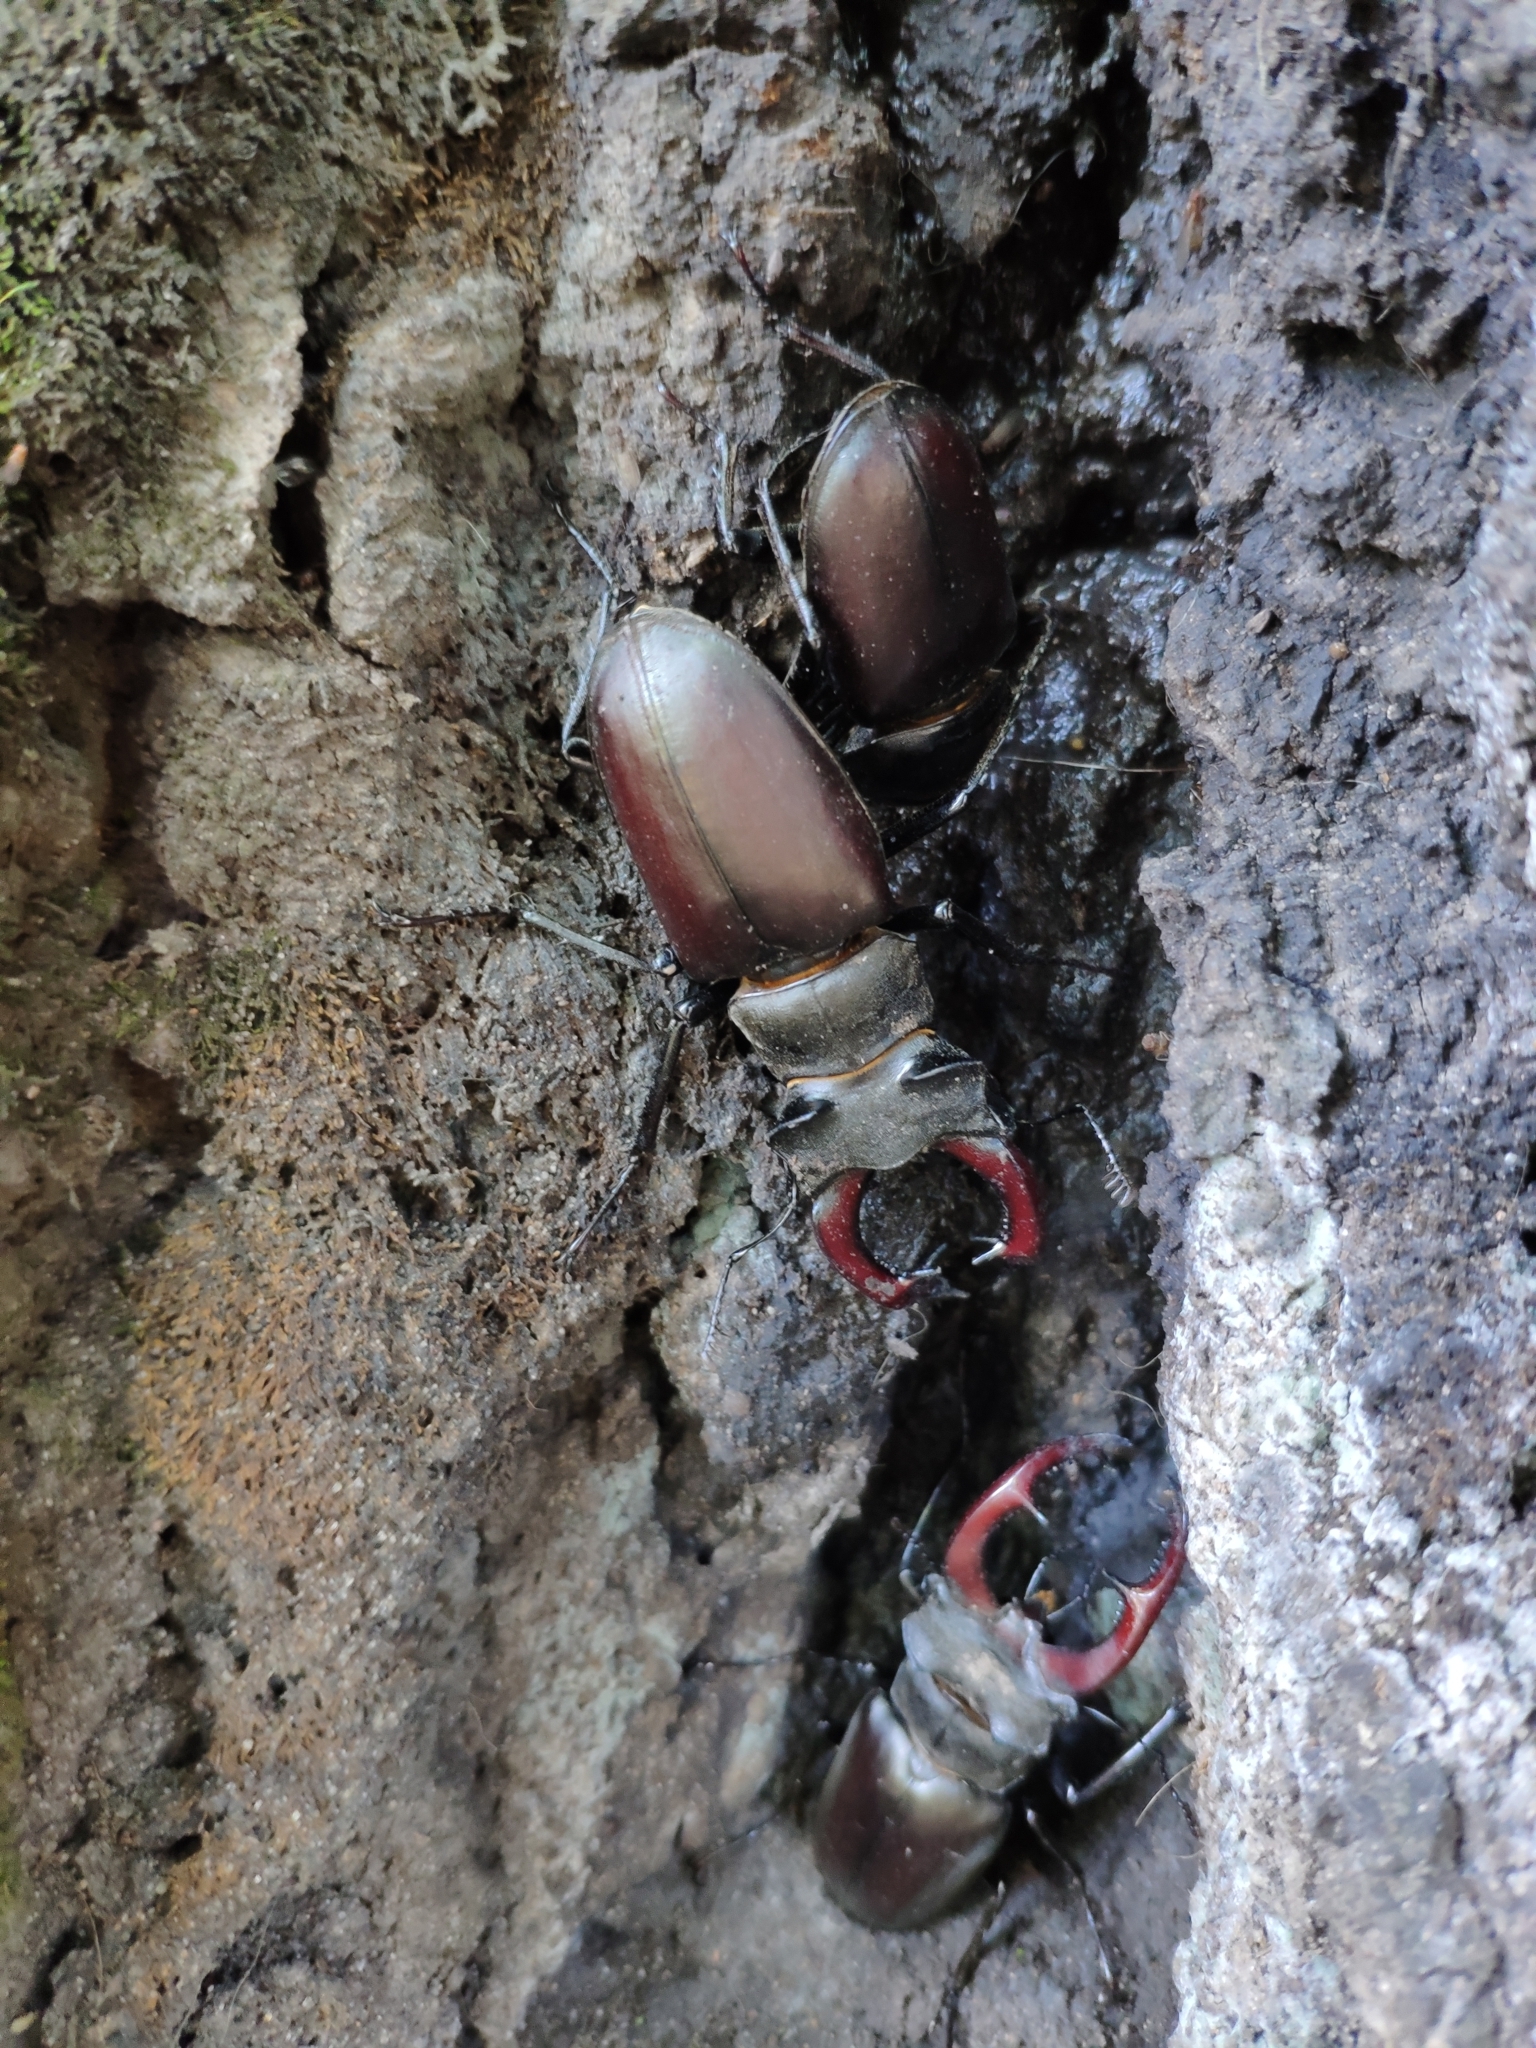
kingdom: Animalia
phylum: Arthropoda
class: Insecta
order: Coleoptera
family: Lucanidae
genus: Lucanus
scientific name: Lucanus cervus
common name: Stag beetle
